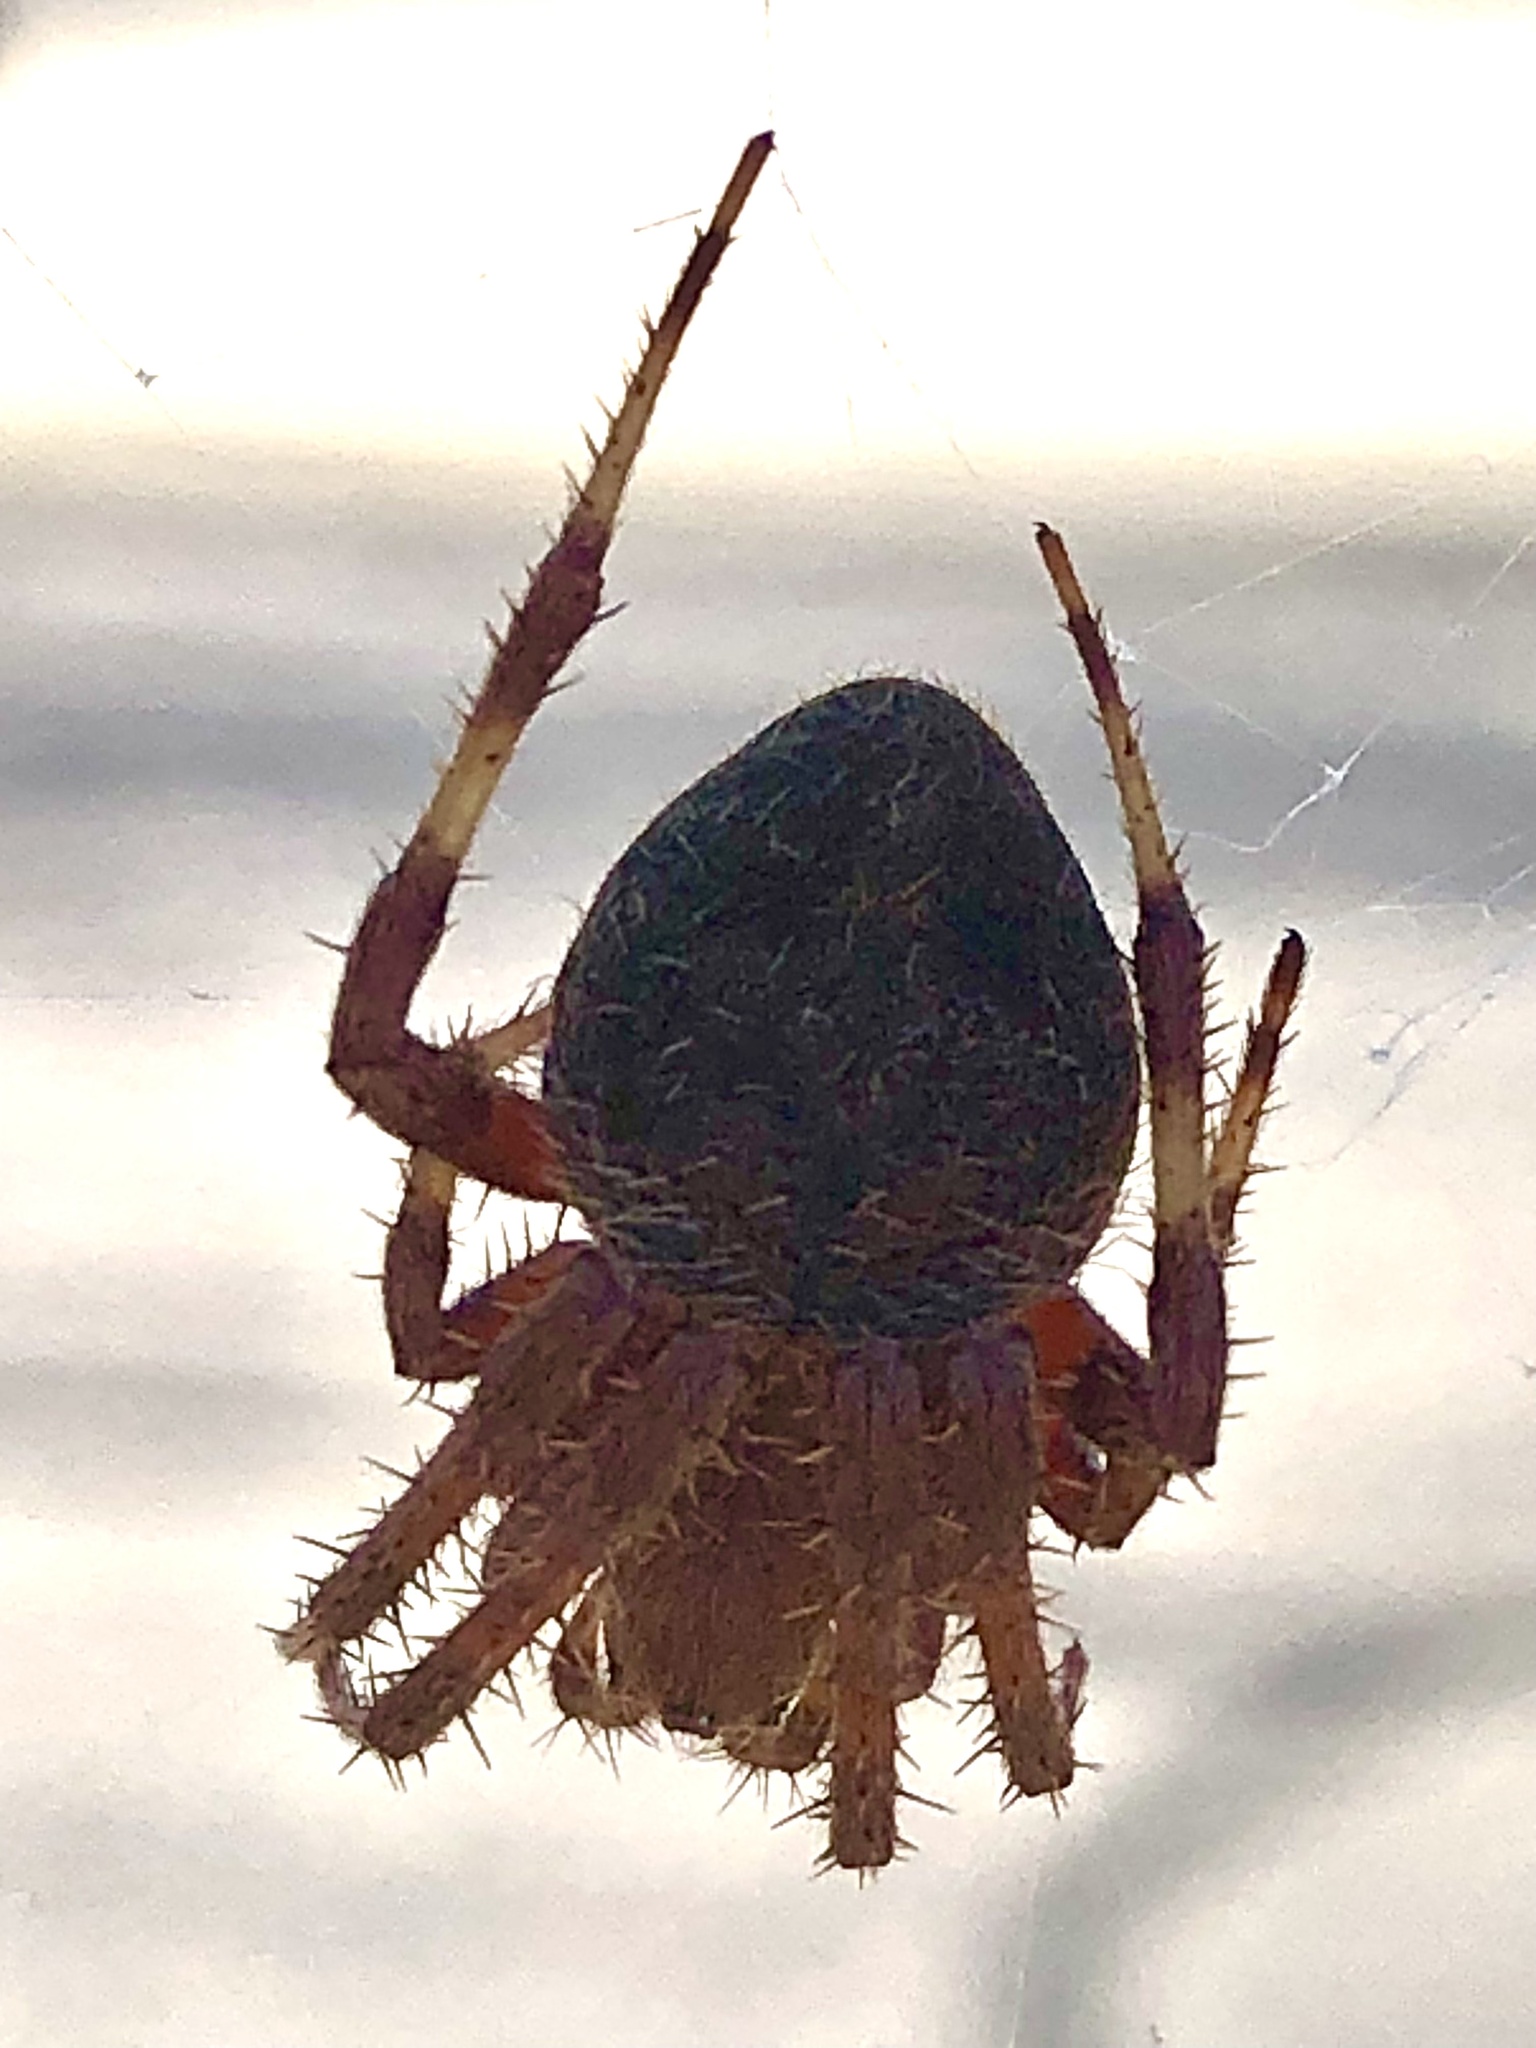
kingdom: Animalia
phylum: Arthropoda
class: Arachnida
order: Araneae
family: Araneidae
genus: Neoscona
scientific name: Neoscona crucifera
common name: Spotted orbweaver
